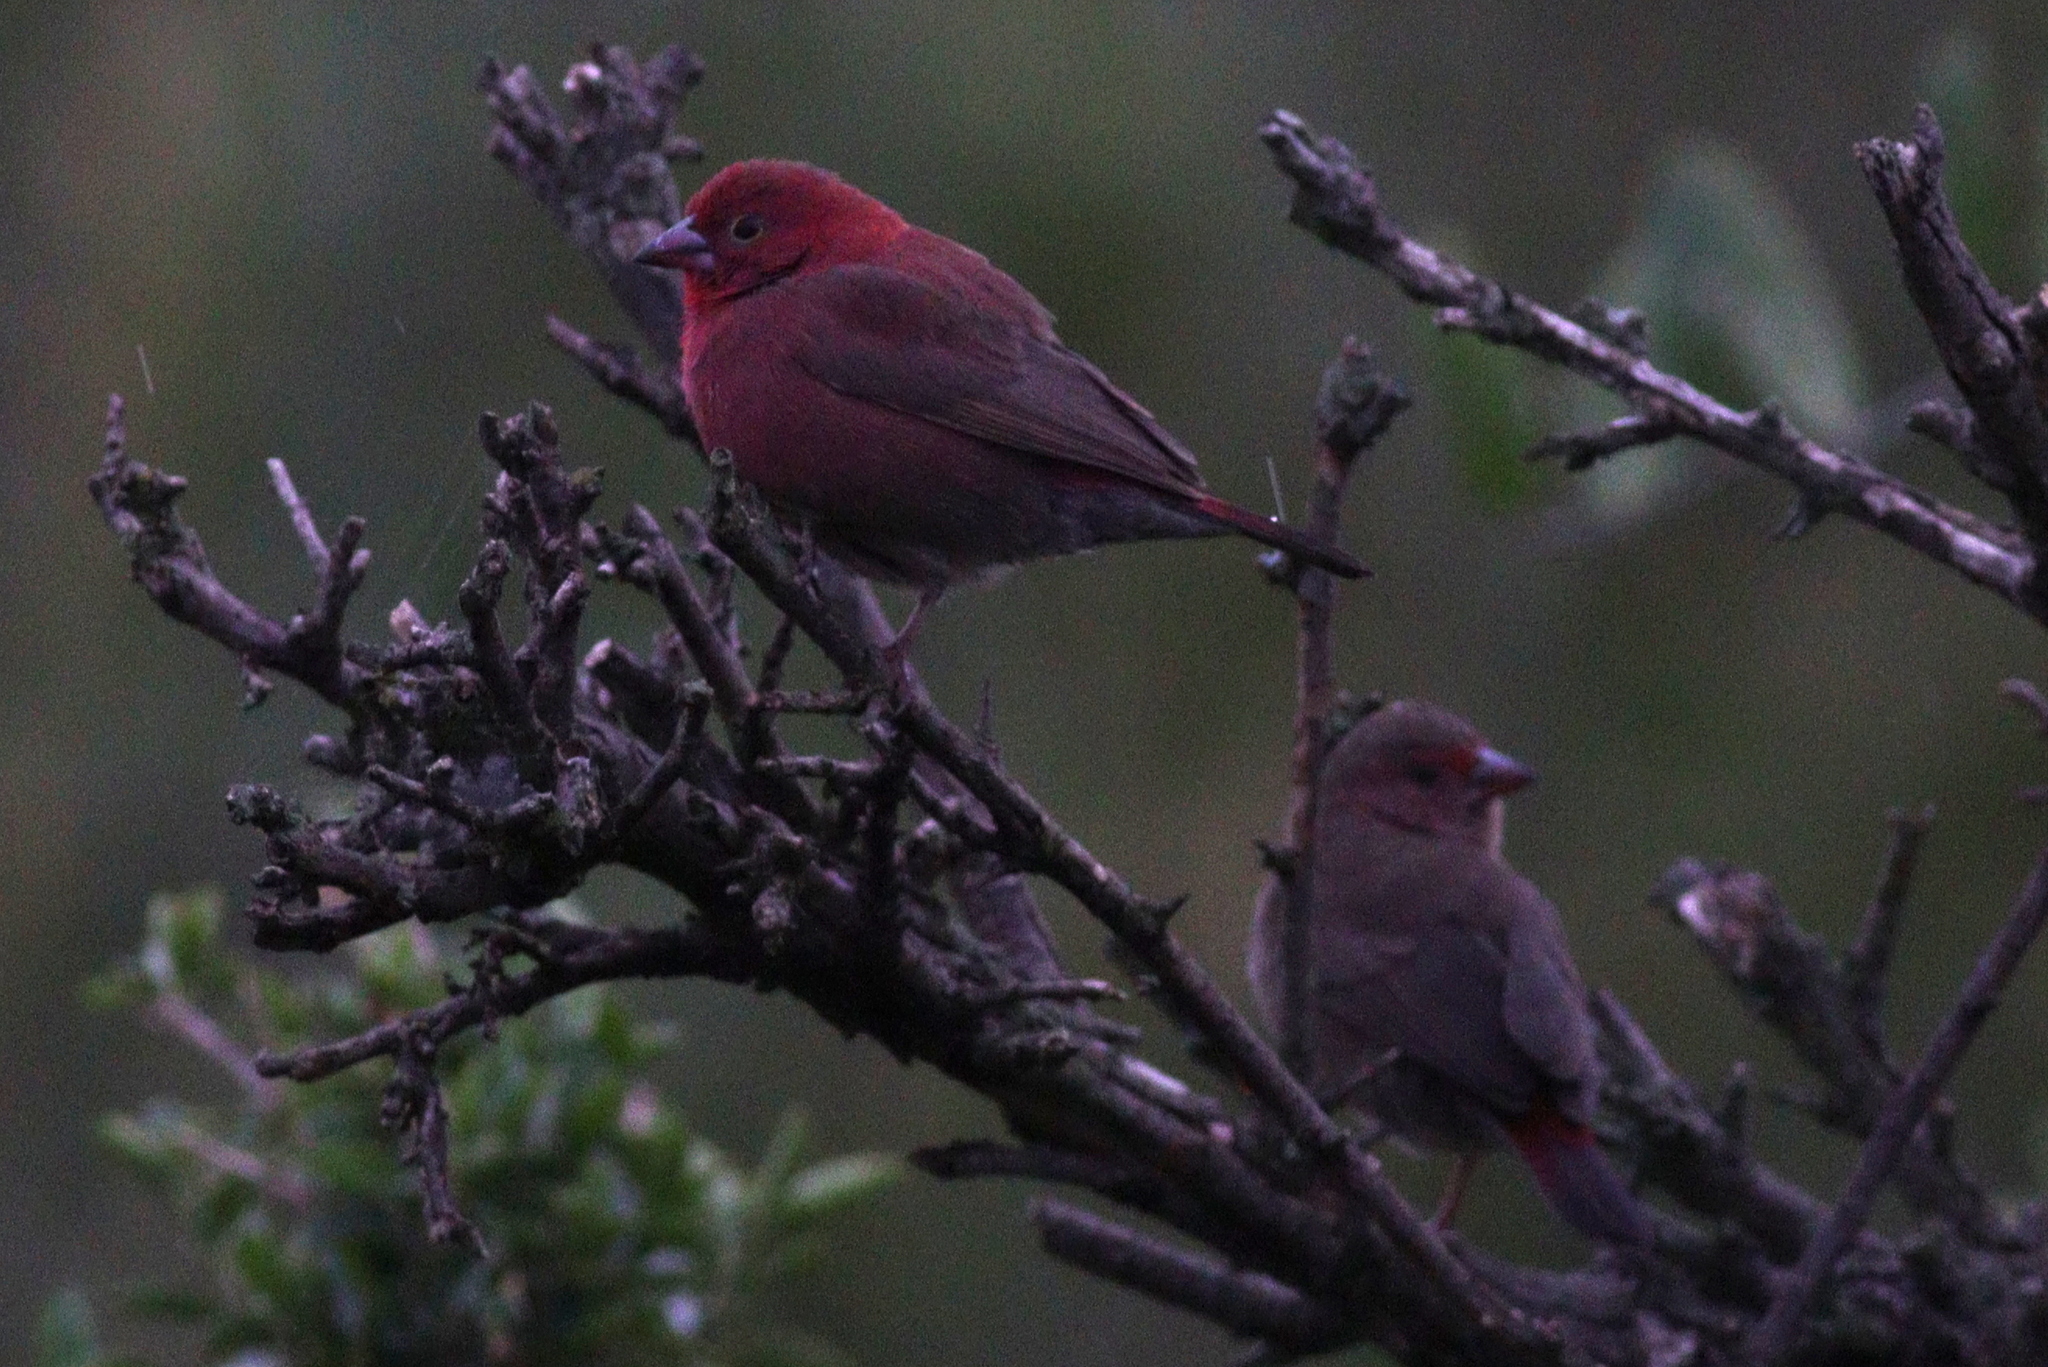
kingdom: Animalia
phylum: Chordata
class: Aves
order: Passeriformes
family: Estrildidae
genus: Lagonosticta
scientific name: Lagonosticta senegala
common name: Red-billed firefinch
